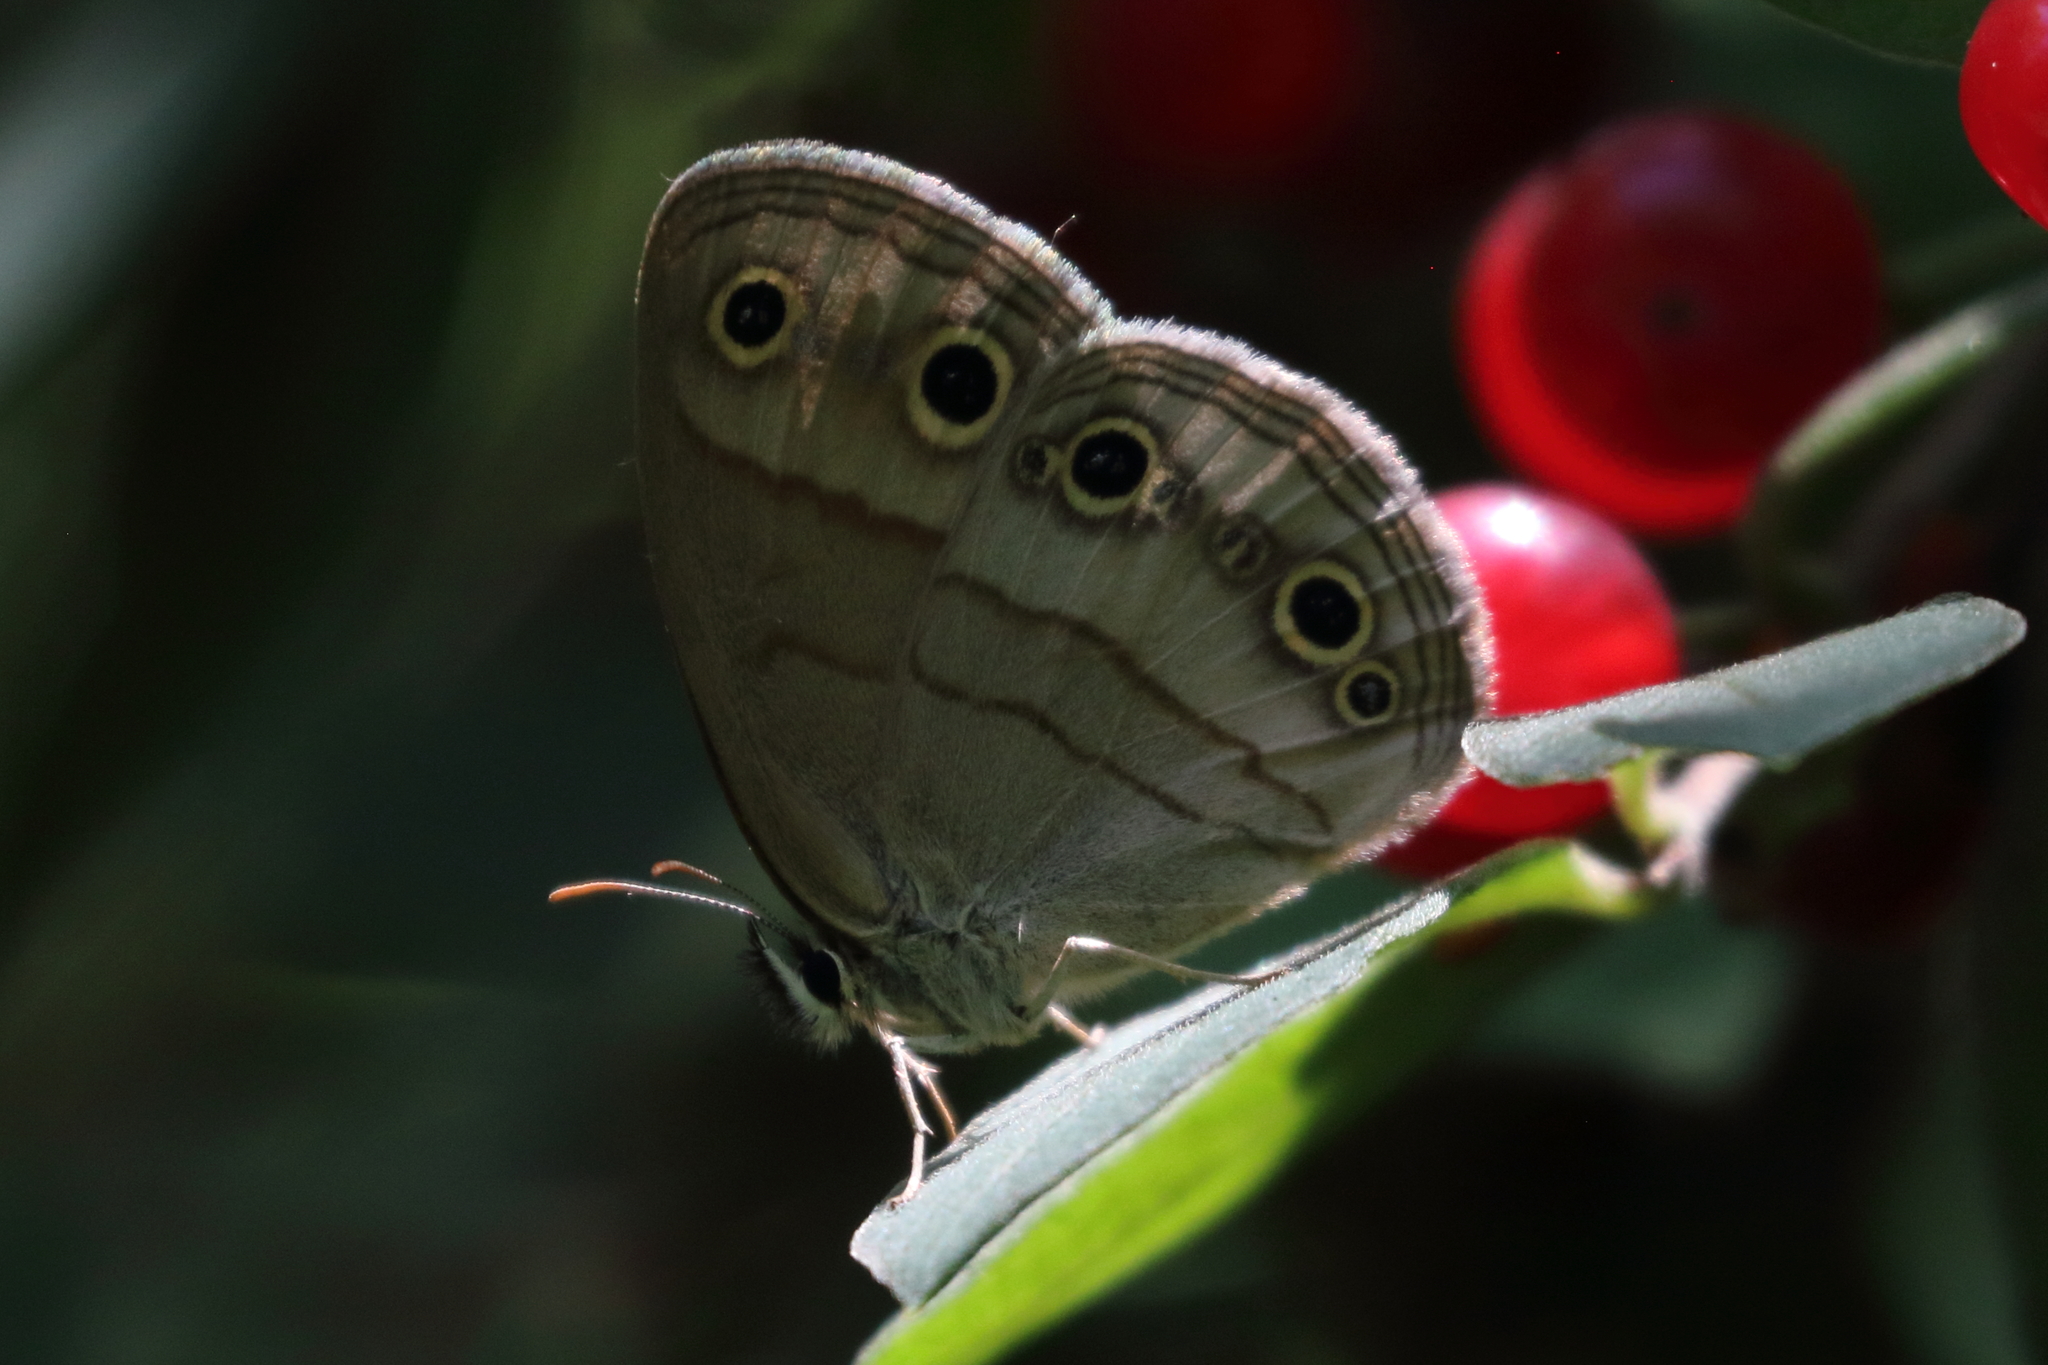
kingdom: Animalia
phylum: Arthropoda
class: Insecta
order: Lepidoptera
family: Nymphalidae
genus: Euptychia
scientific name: Euptychia cymela
